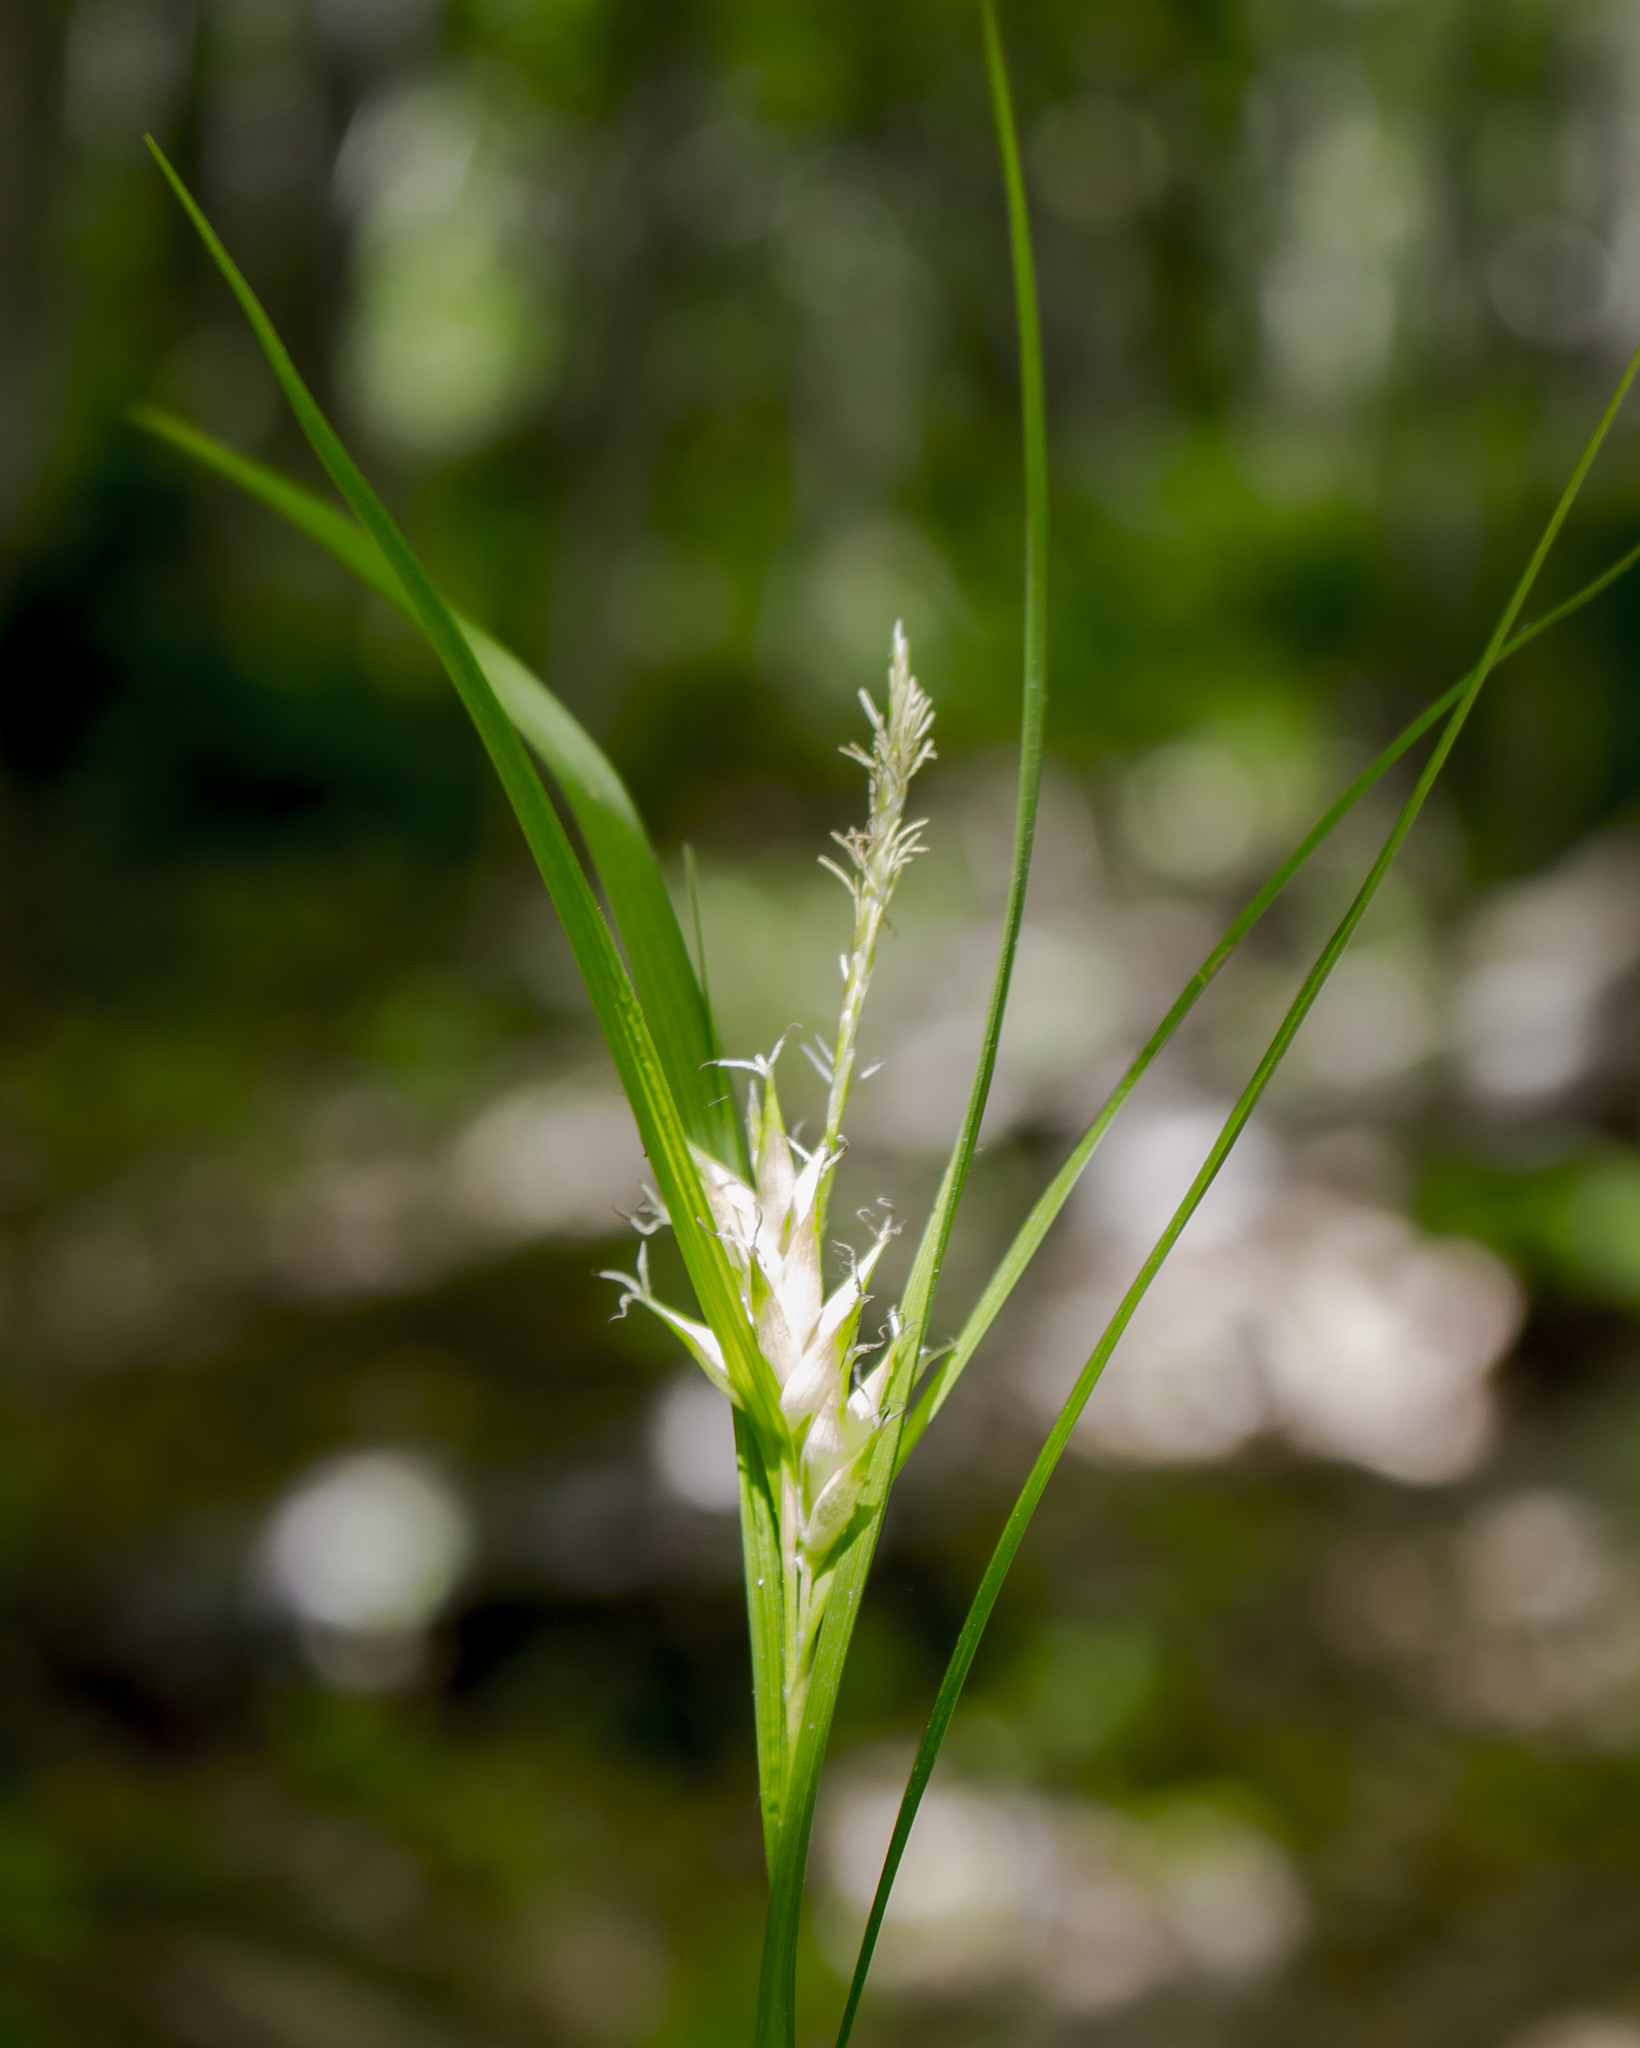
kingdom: Plantae
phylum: Tracheophyta
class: Liliopsida
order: Poales
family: Cyperaceae
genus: Carex
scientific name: Carex intumescens
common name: Greater bladder sedge
